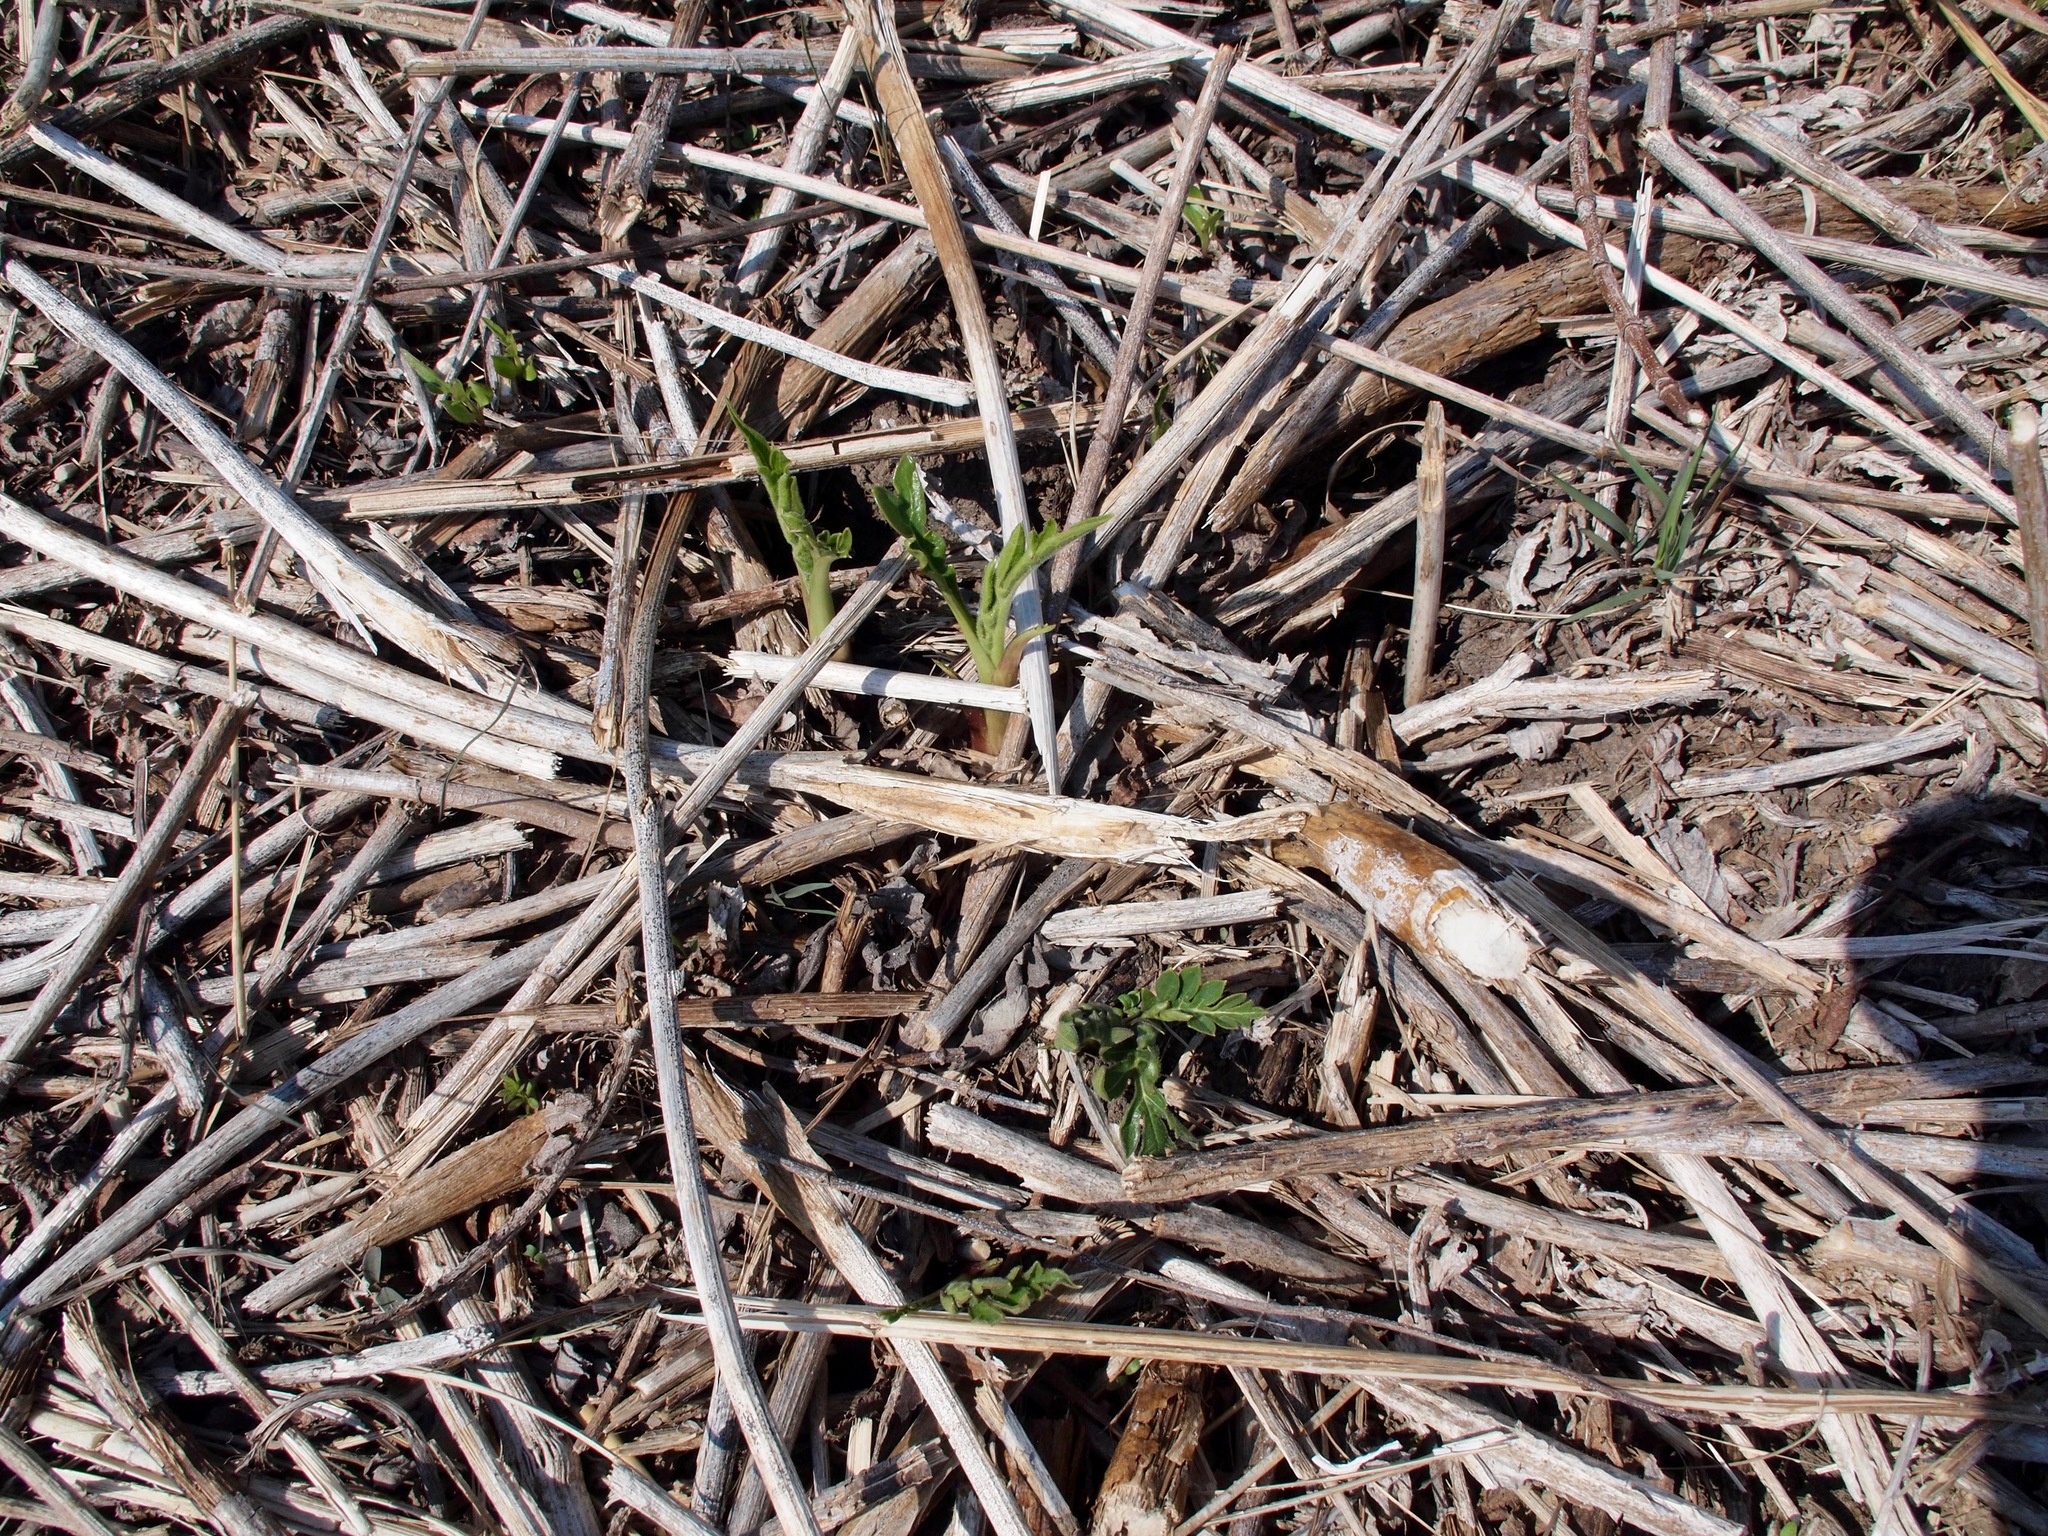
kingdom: Plantae
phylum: Tracheophyta
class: Magnoliopsida
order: Asterales
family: Asteraceae
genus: Silphium
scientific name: Silphium laciniatum
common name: Polarplant
